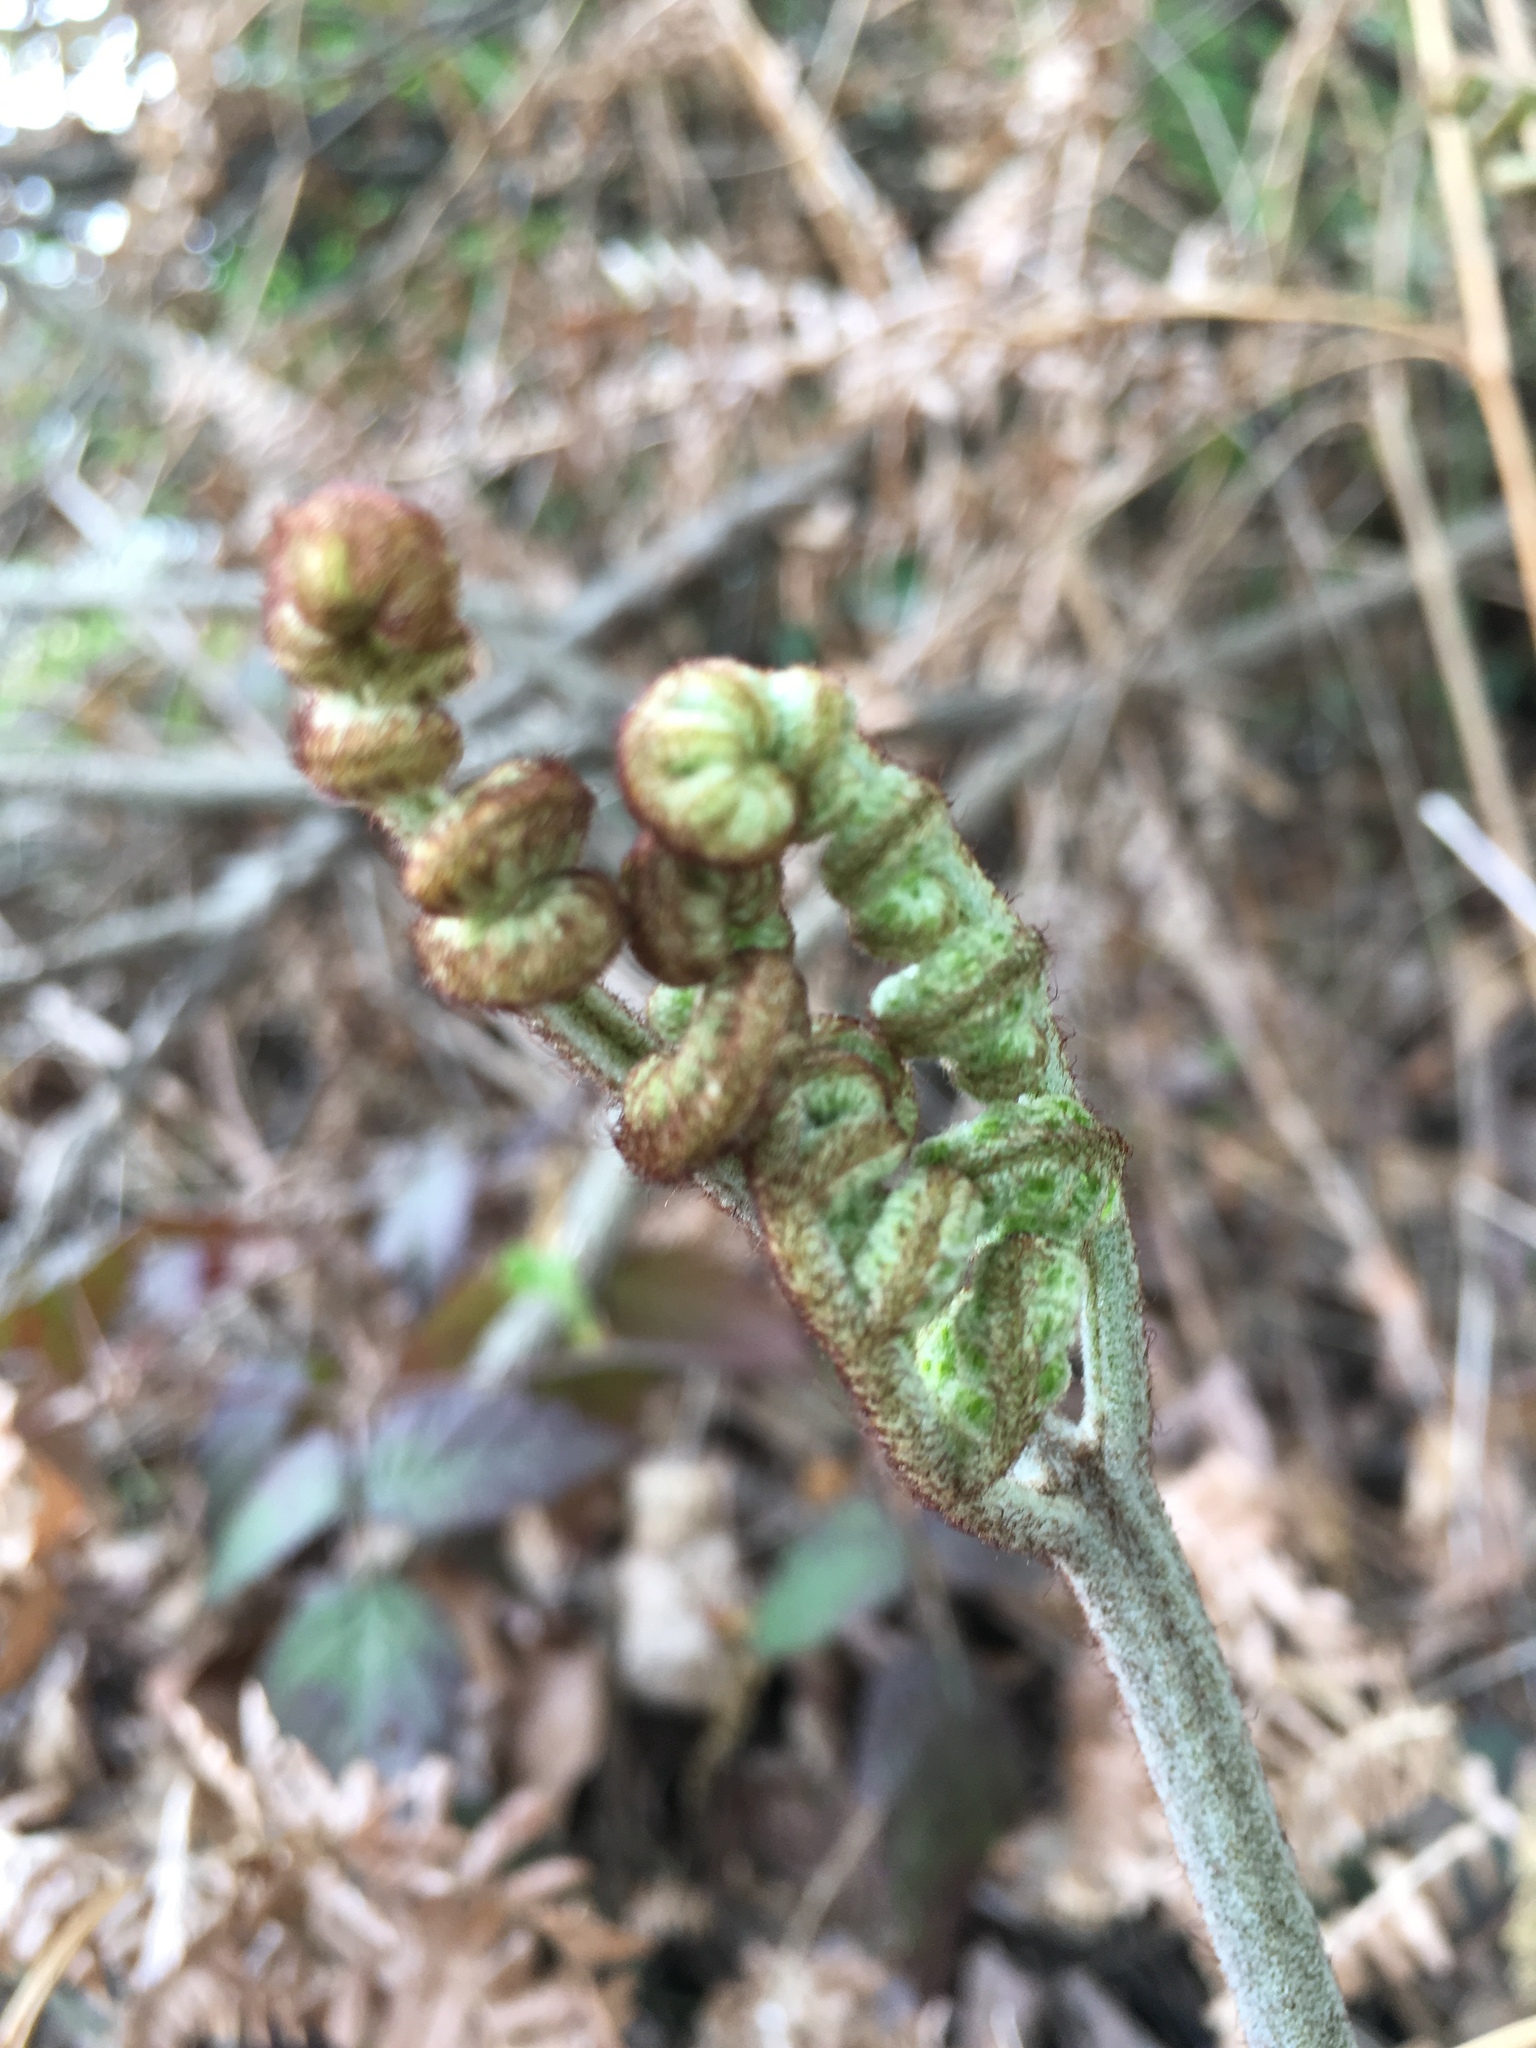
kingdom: Plantae
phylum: Tracheophyta
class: Polypodiopsida
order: Polypodiales
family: Dennstaedtiaceae
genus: Pteridium
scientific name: Pteridium aquilinum
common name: Bracken
